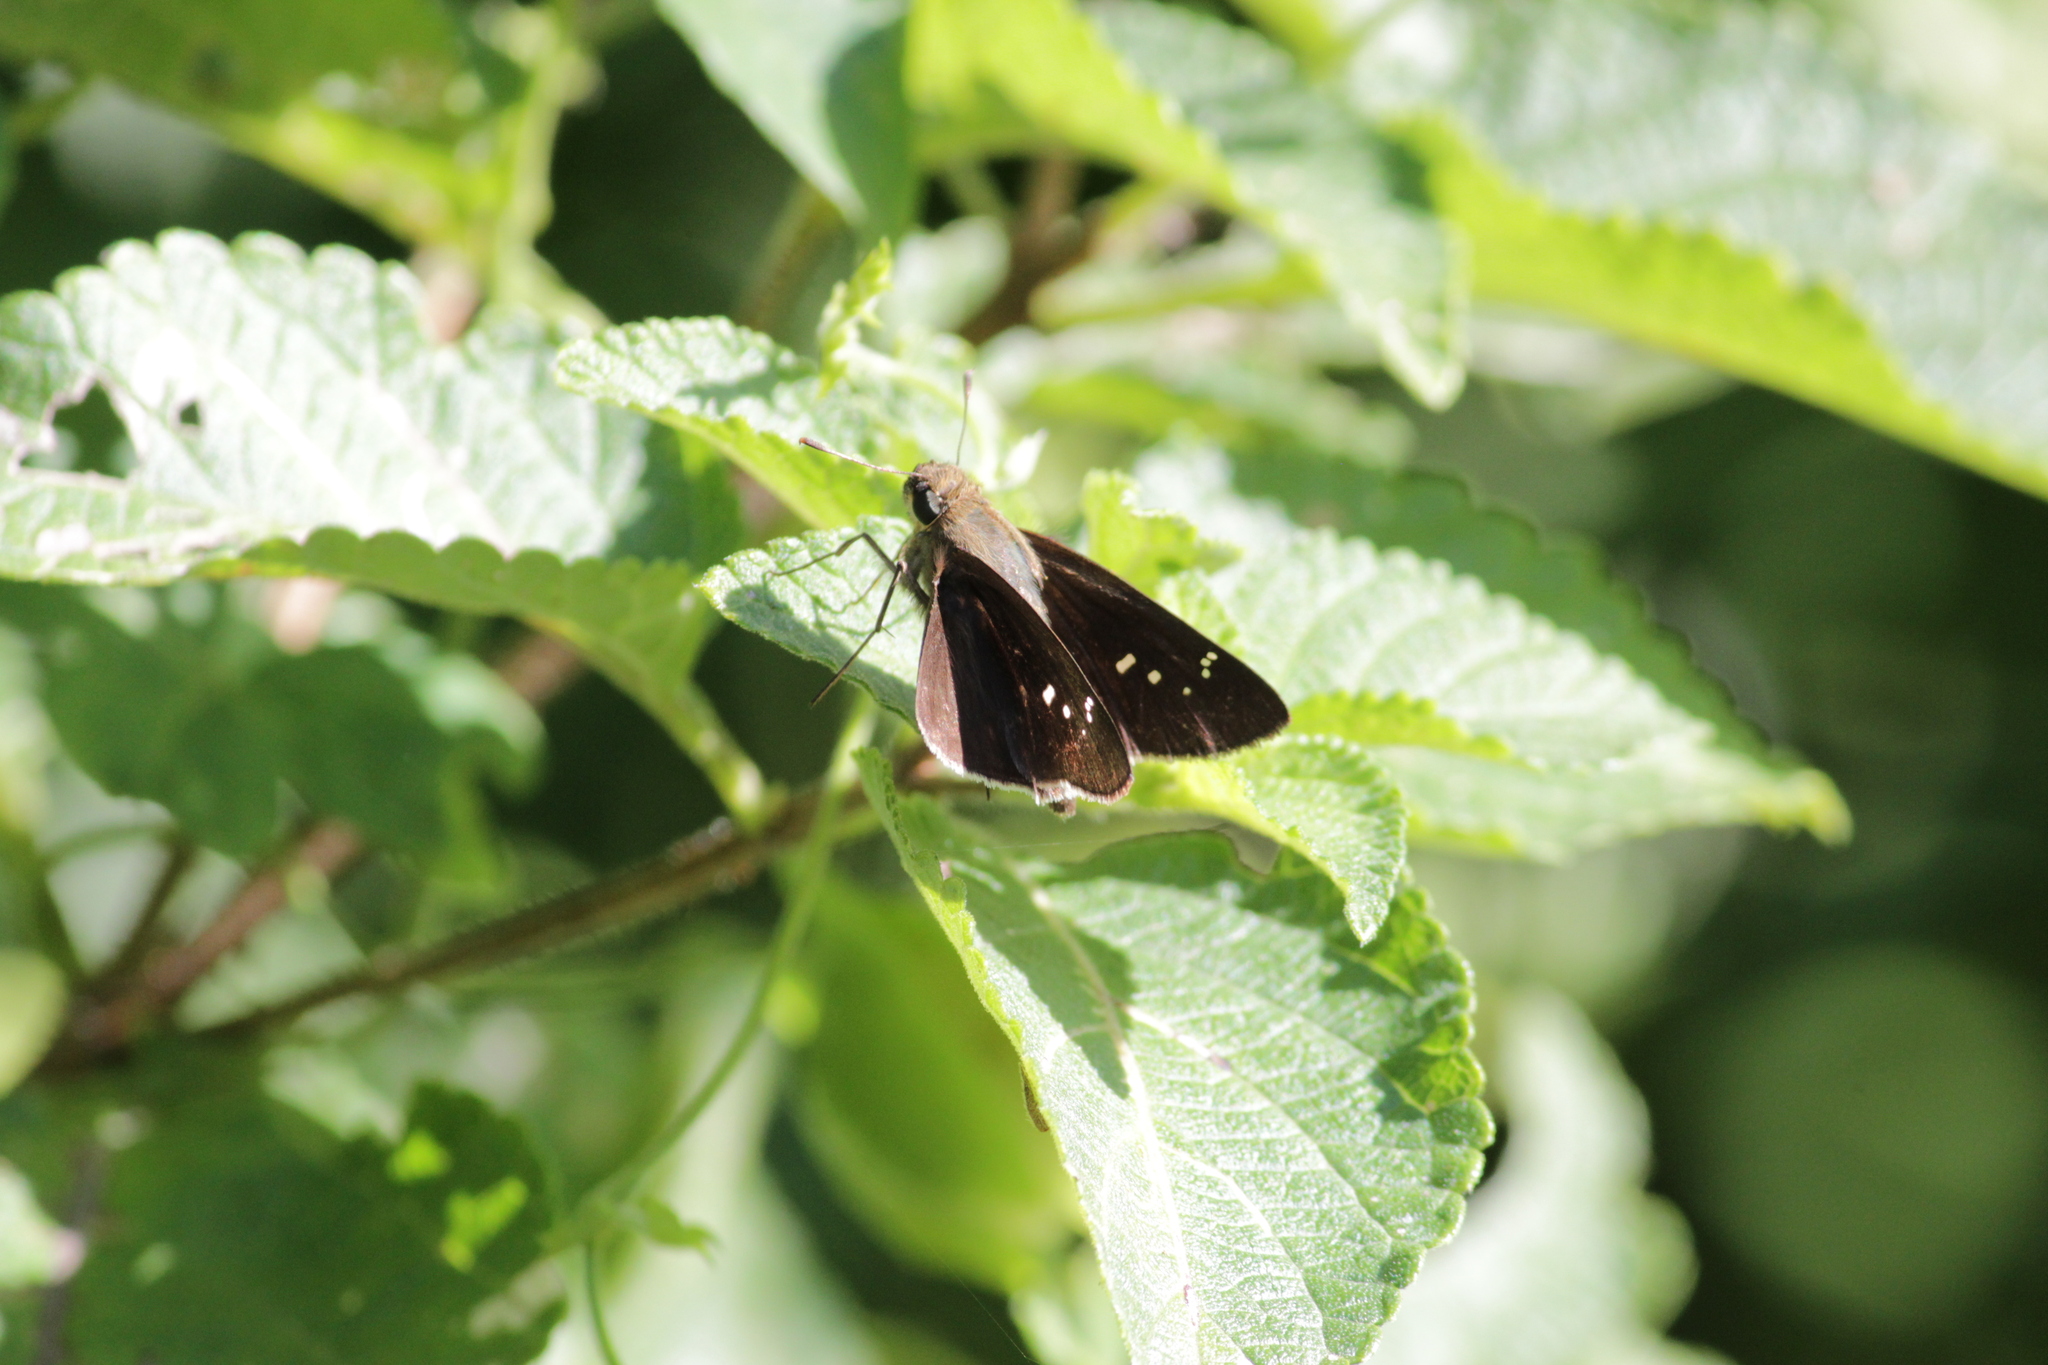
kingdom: Animalia
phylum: Arthropoda
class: Insecta
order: Lepidoptera
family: Hesperiidae
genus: Baoris
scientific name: Baoris fatuellus
